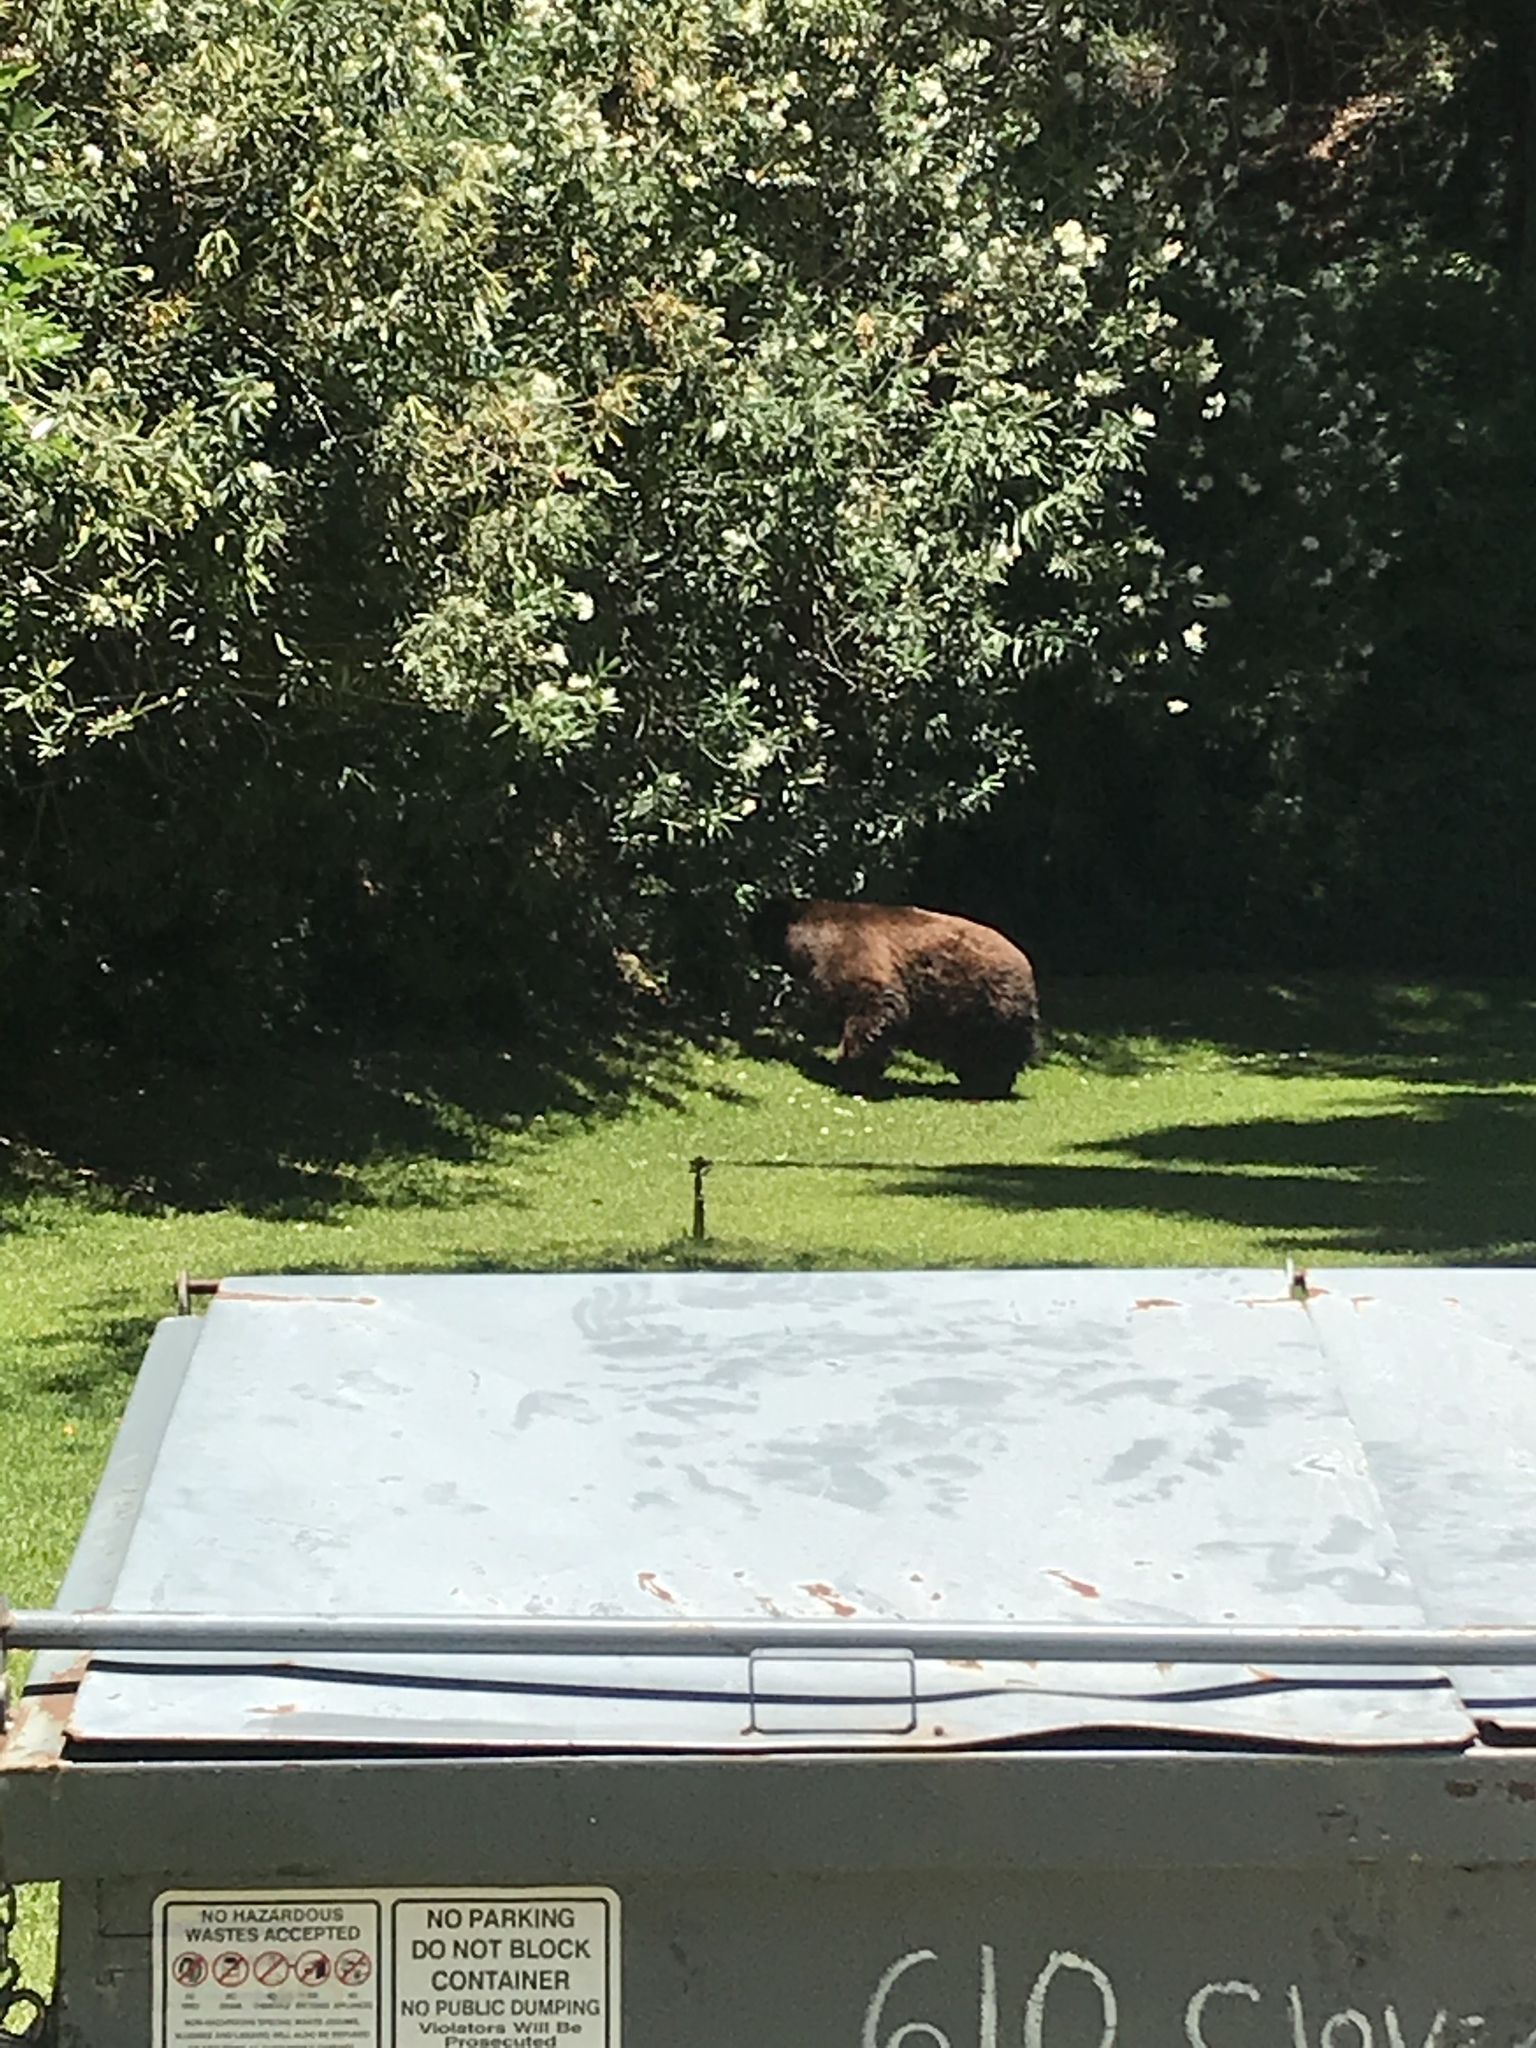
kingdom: Animalia
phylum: Chordata
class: Mammalia
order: Carnivora
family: Ursidae
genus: Ursus
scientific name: Ursus americanus
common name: American black bear
